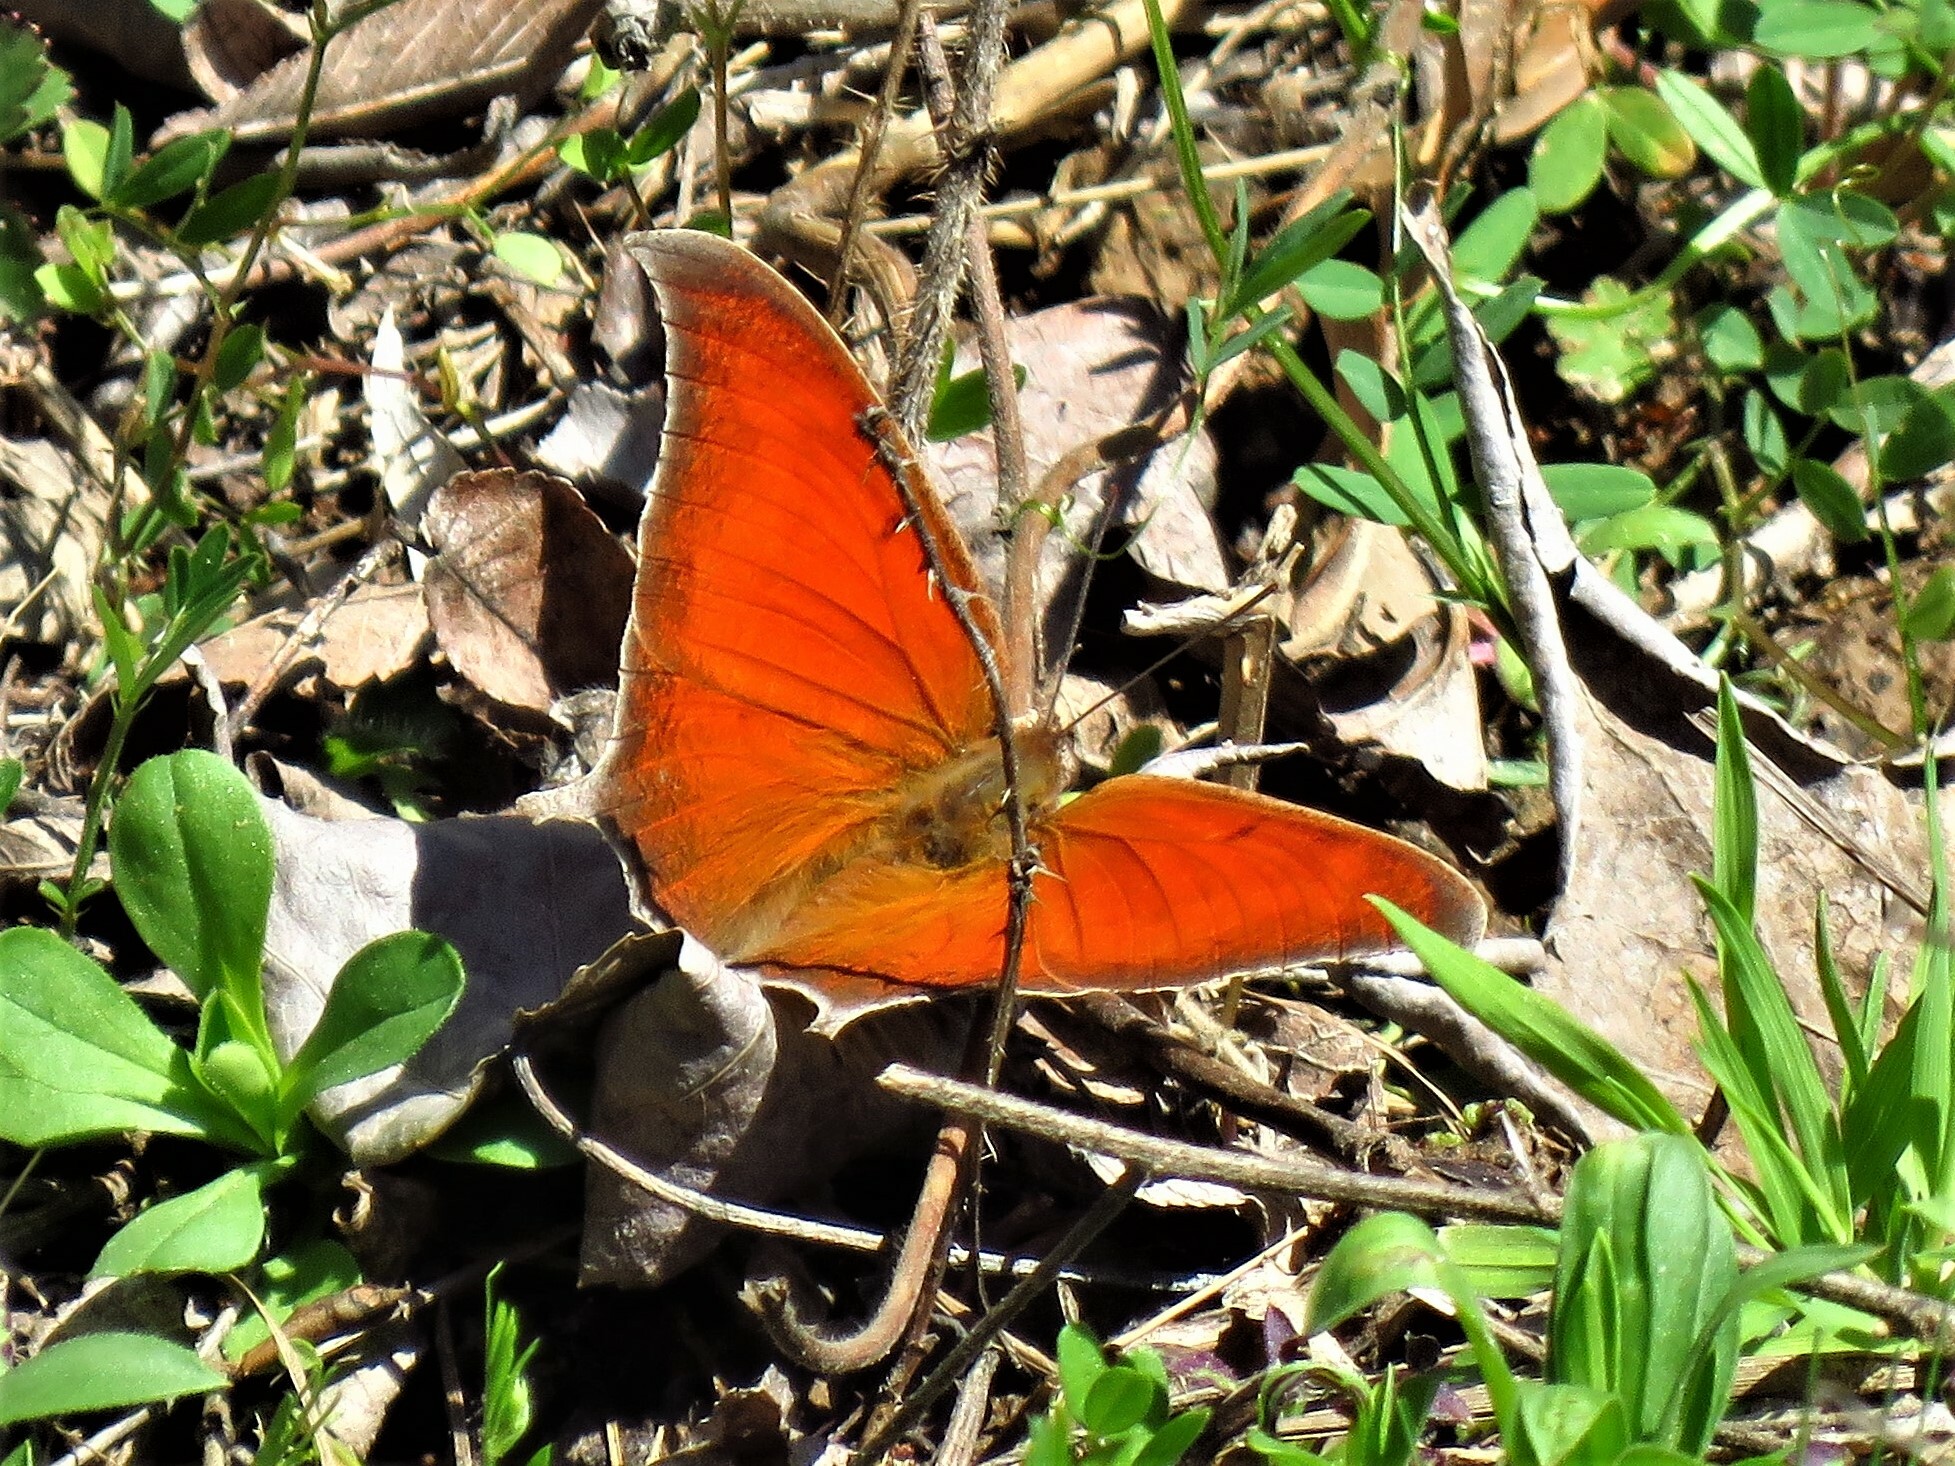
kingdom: Animalia
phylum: Arthropoda
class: Insecta
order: Lepidoptera
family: Nymphalidae
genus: Anaea
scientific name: Anaea andria
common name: Goatweed leafwing
